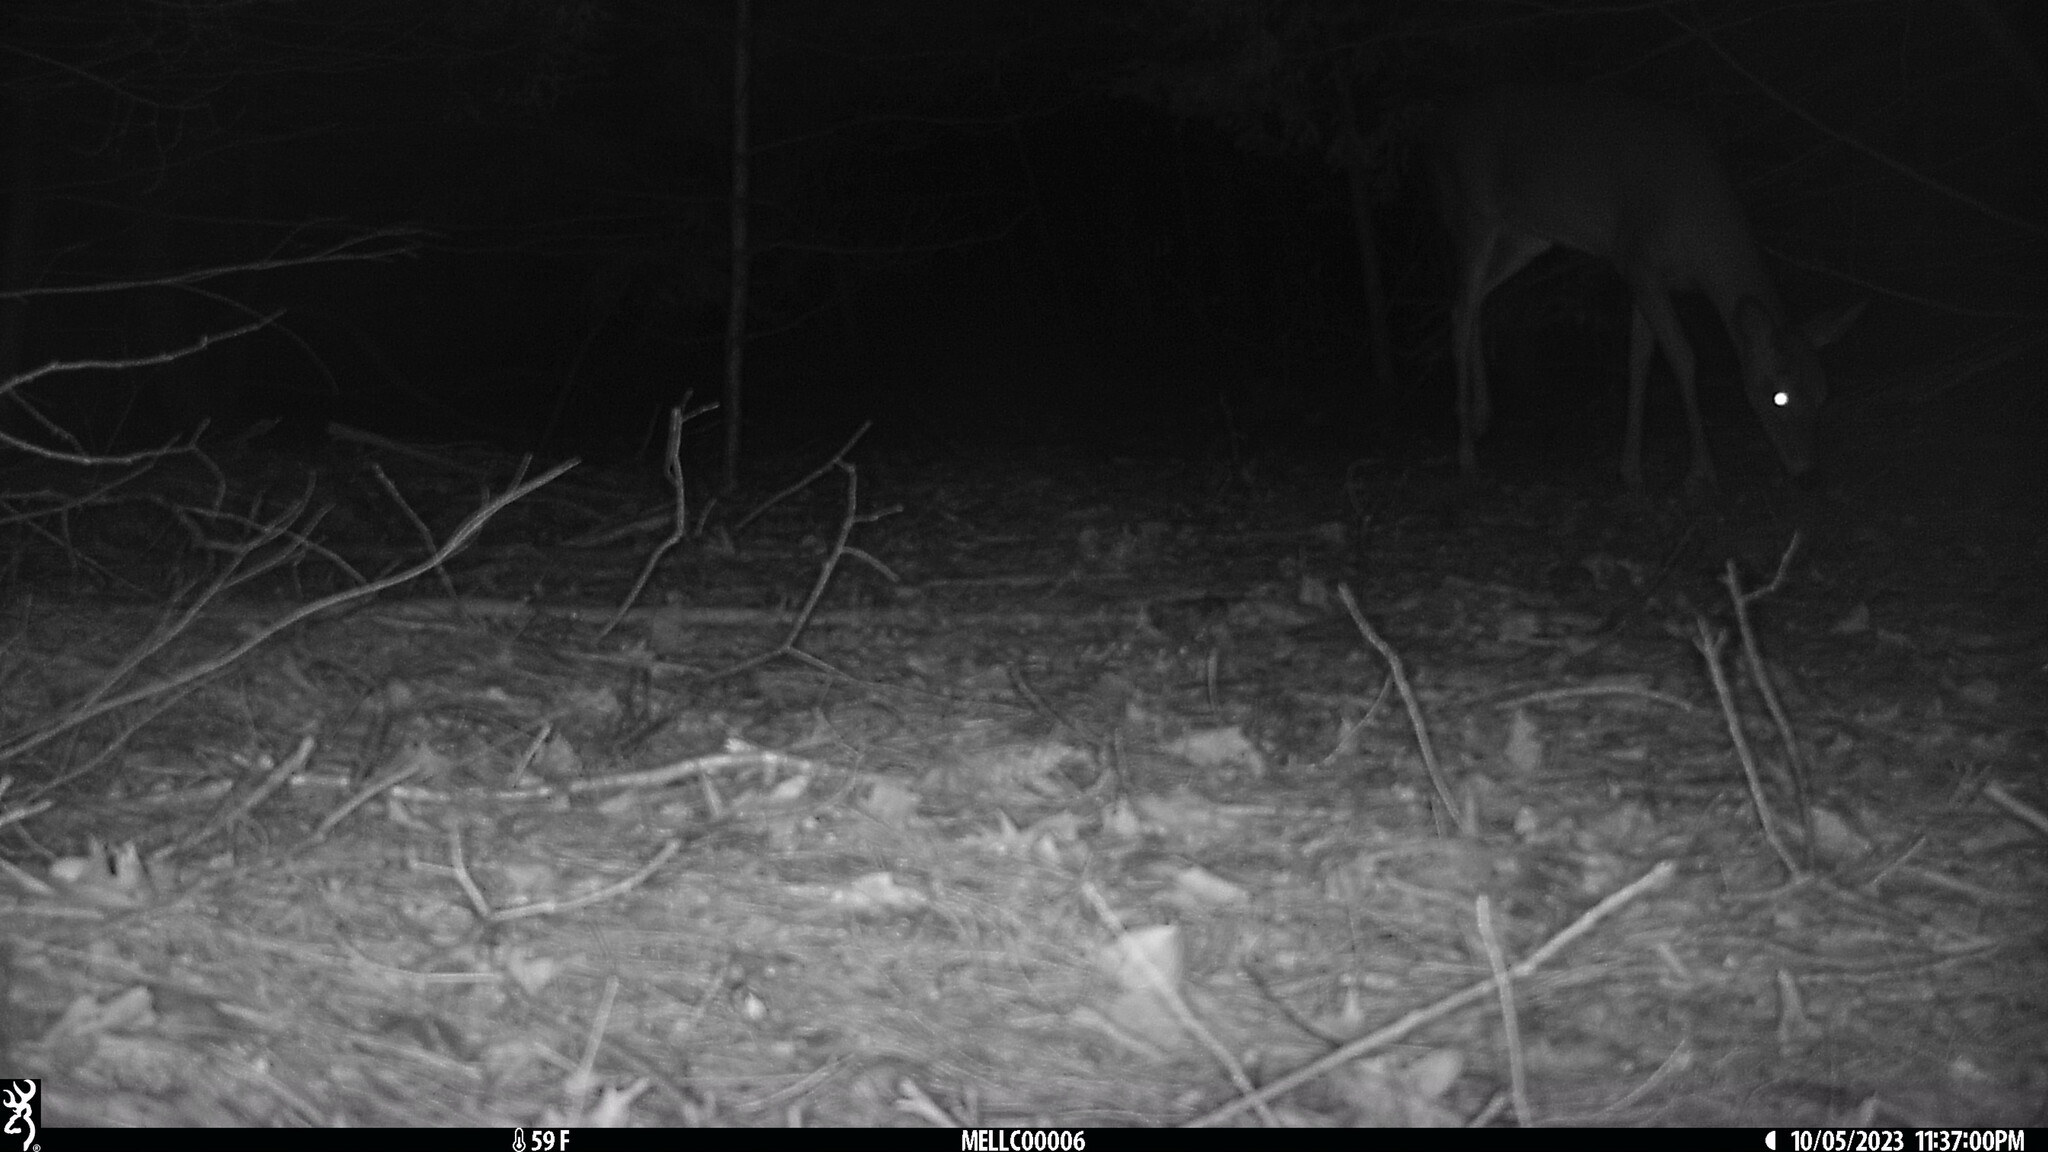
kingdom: Animalia
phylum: Chordata
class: Mammalia
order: Artiodactyla
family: Cervidae
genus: Odocoileus
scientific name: Odocoileus virginianus
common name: White-tailed deer
